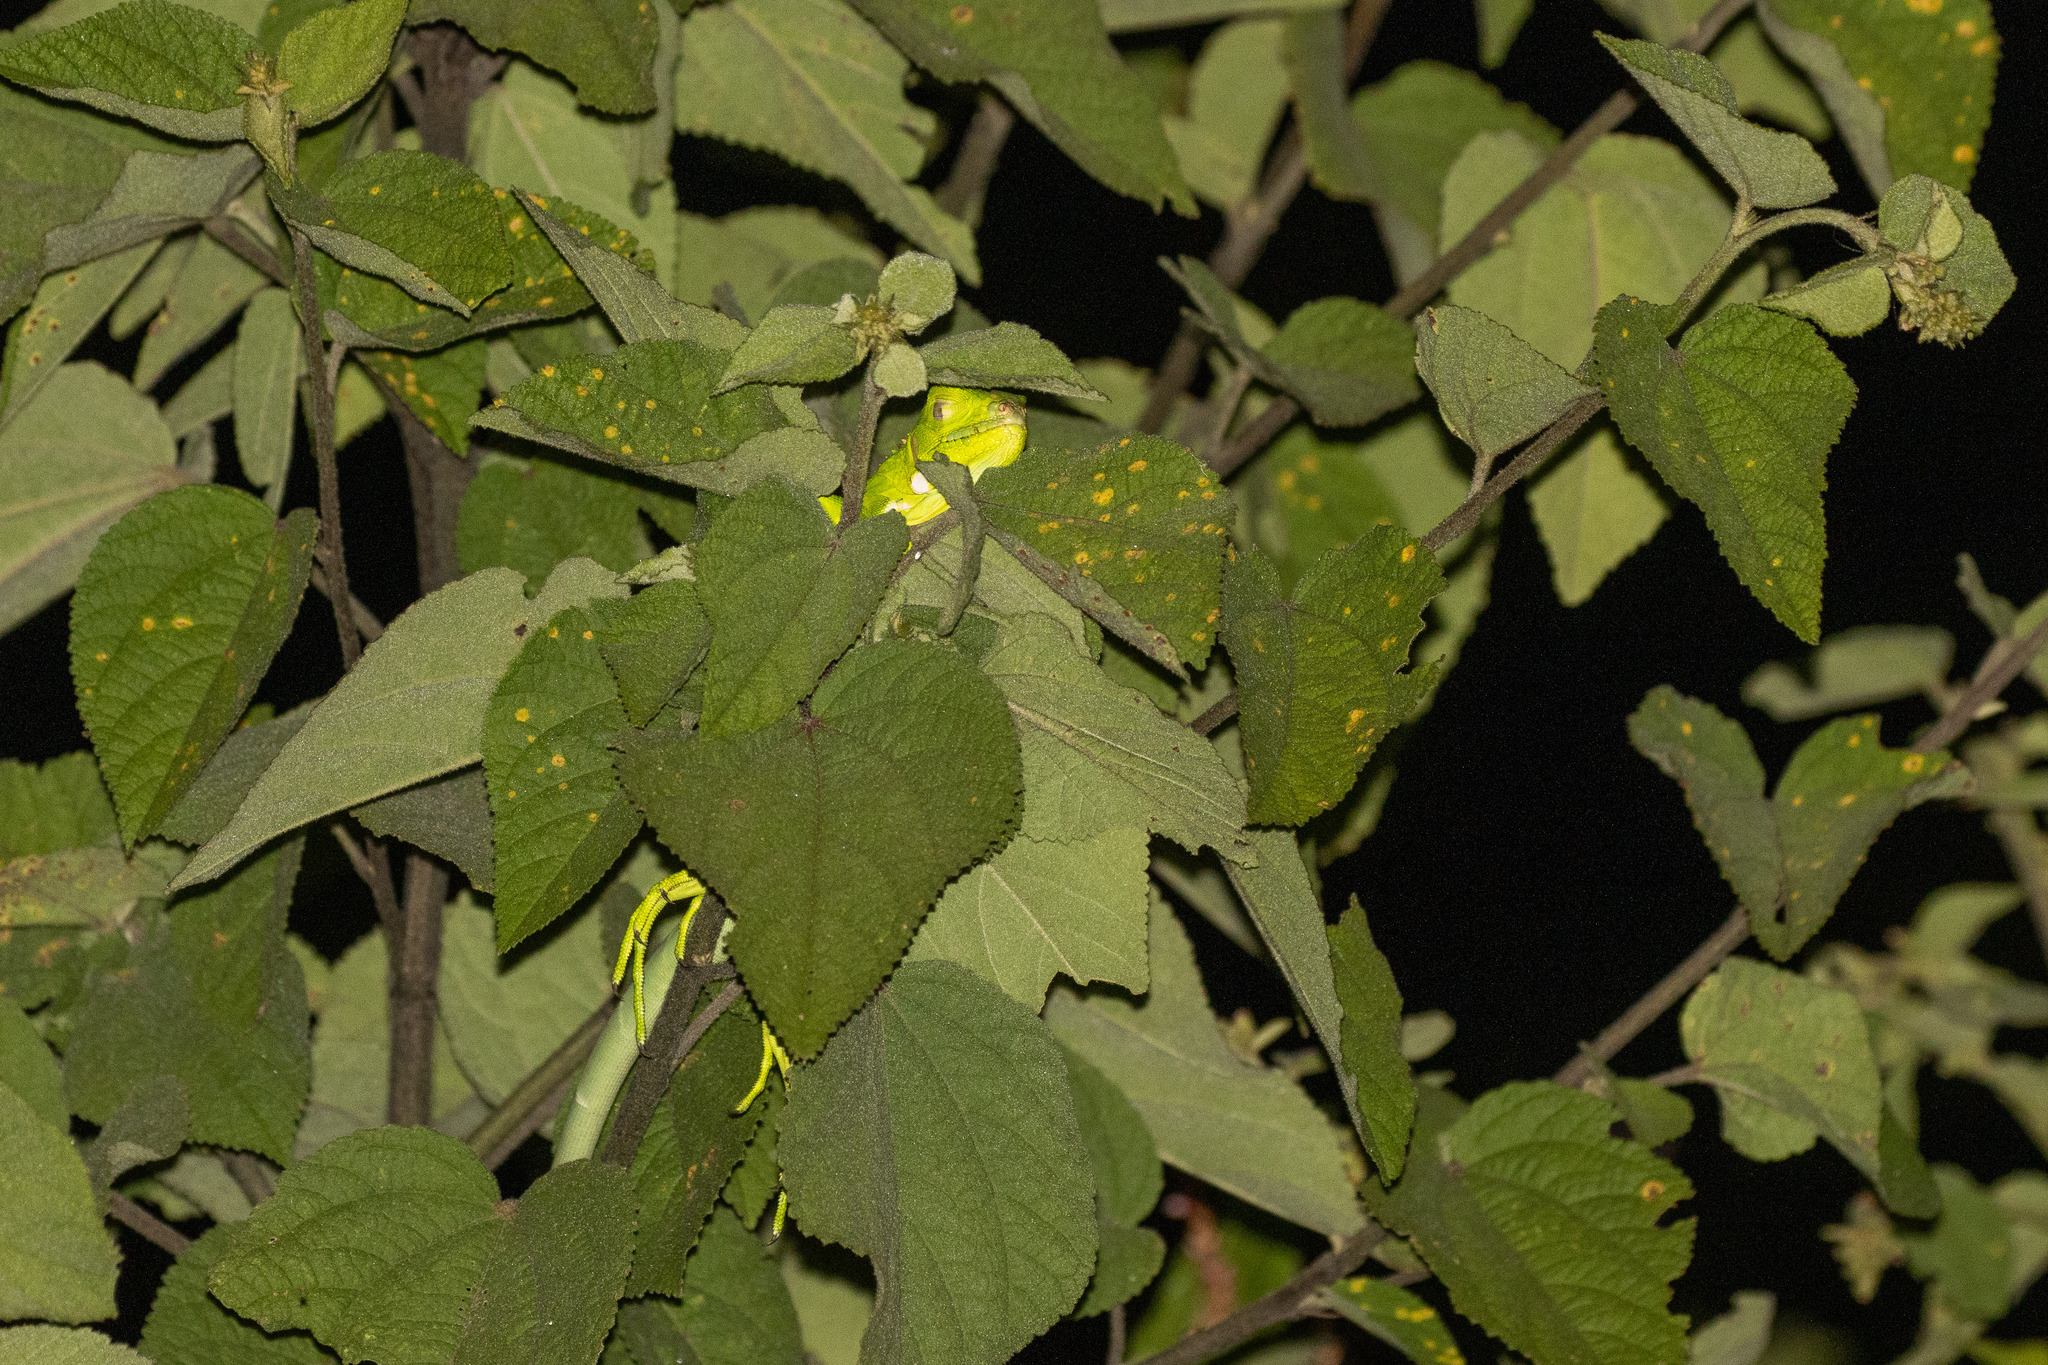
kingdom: Animalia
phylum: Chordata
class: Squamata
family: Iguanidae
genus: Iguana
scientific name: Iguana iguana
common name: Green iguana
